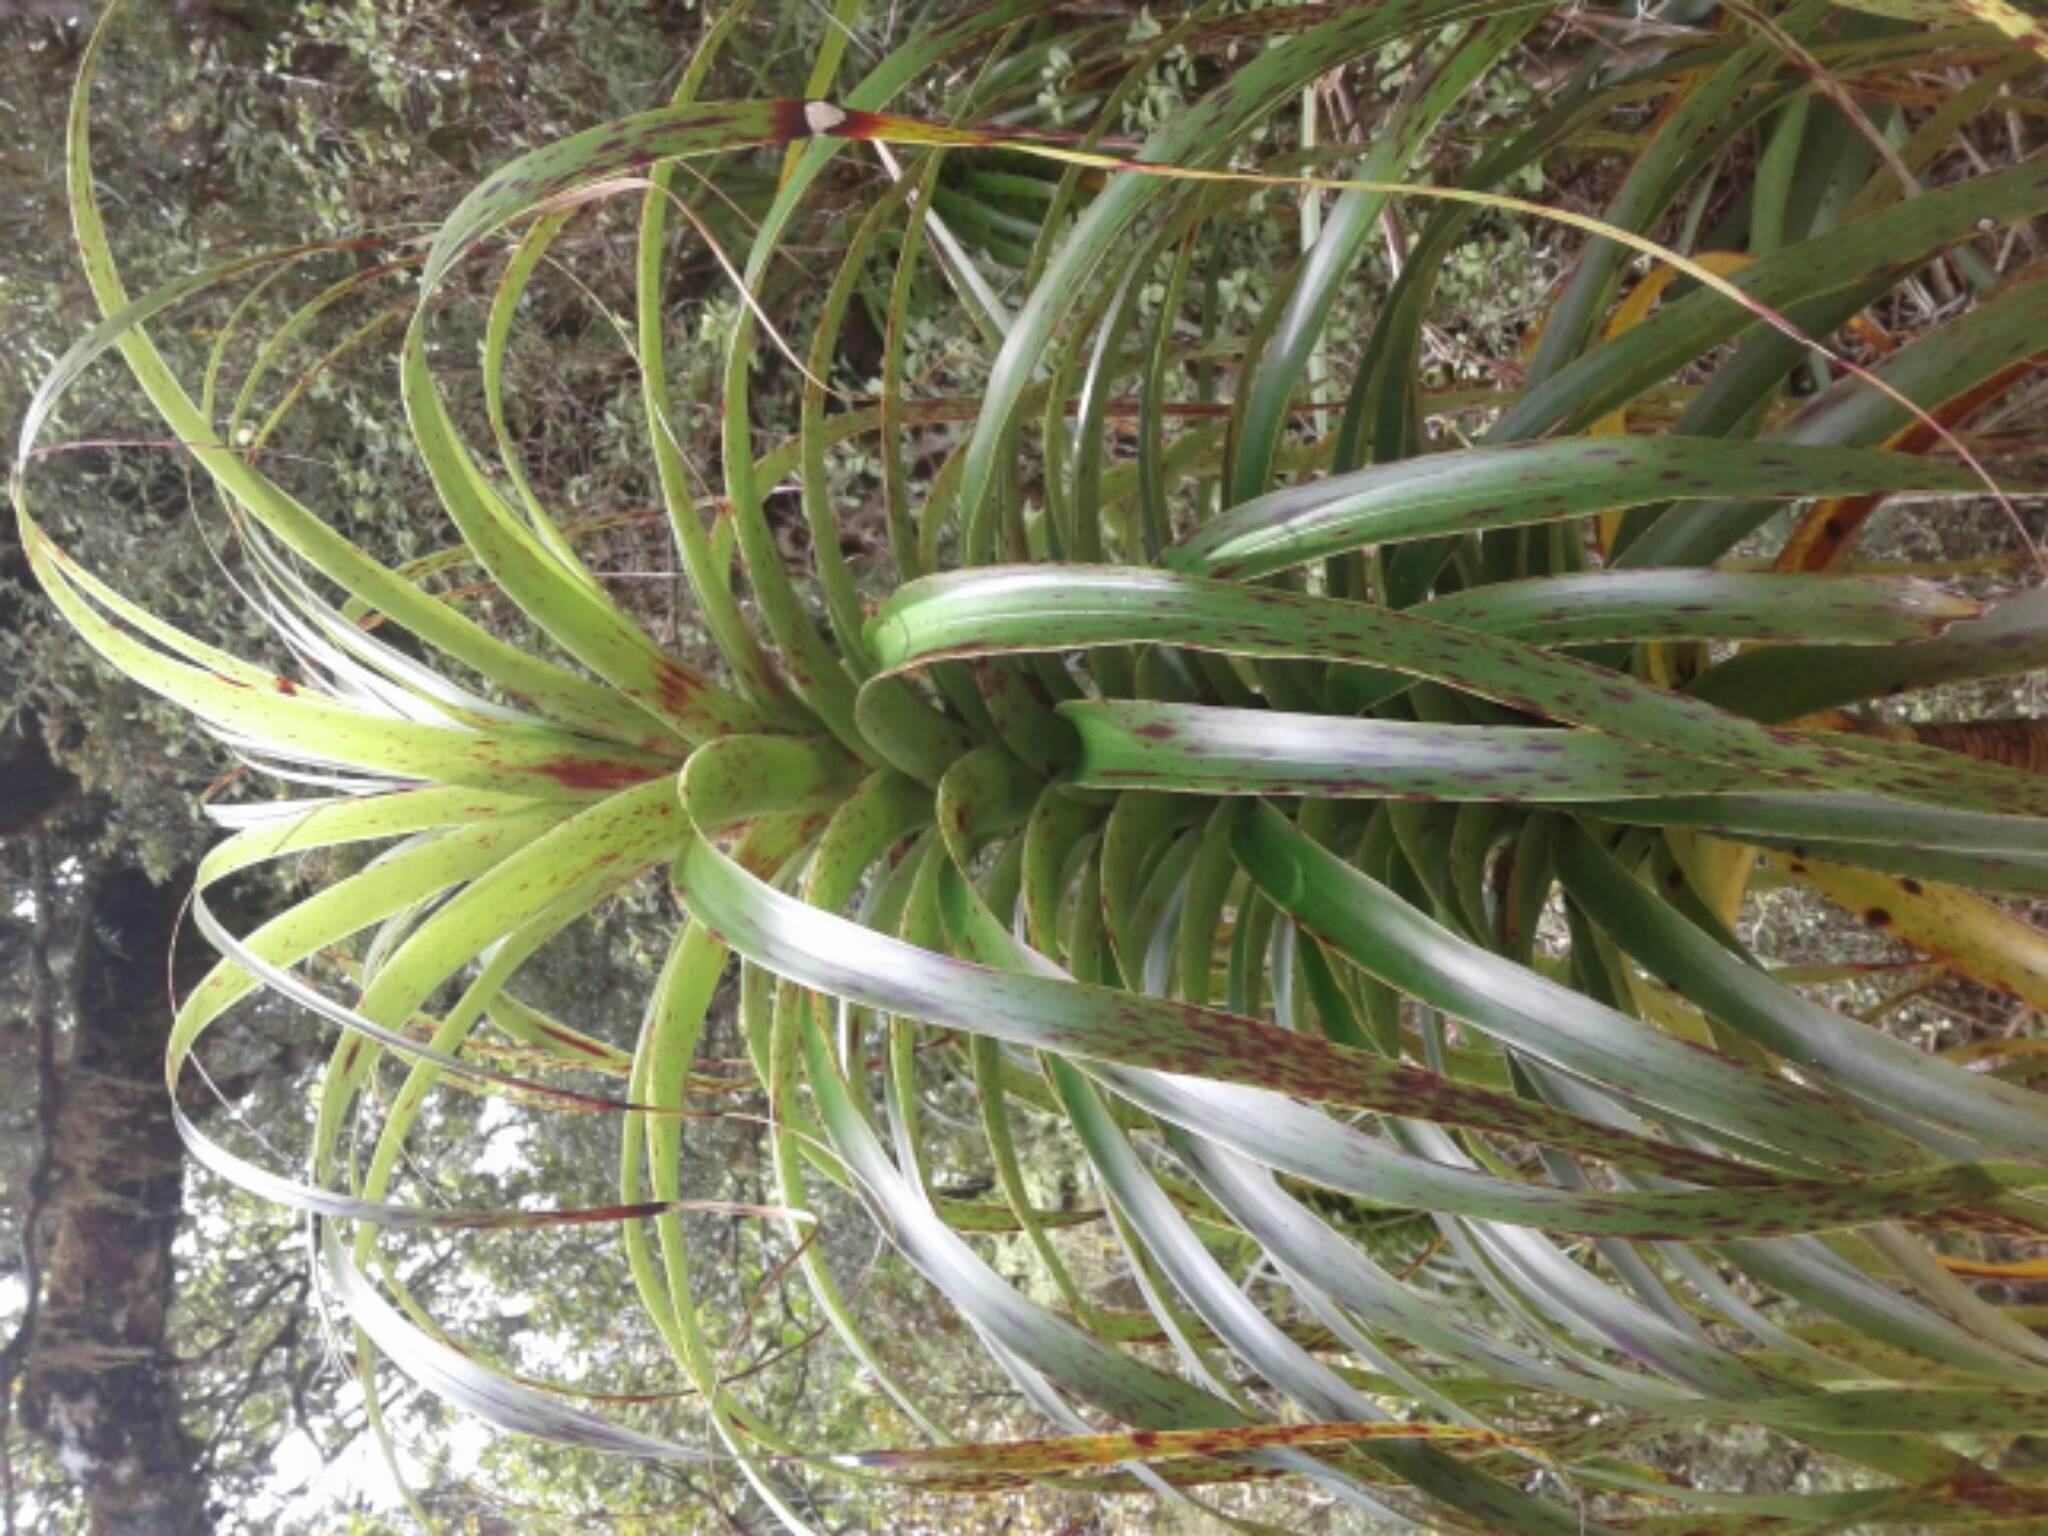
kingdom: Plantae
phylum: Tracheophyta
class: Magnoliopsida
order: Ericales
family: Ericaceae
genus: Dracophyllum
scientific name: Dracophyllum
